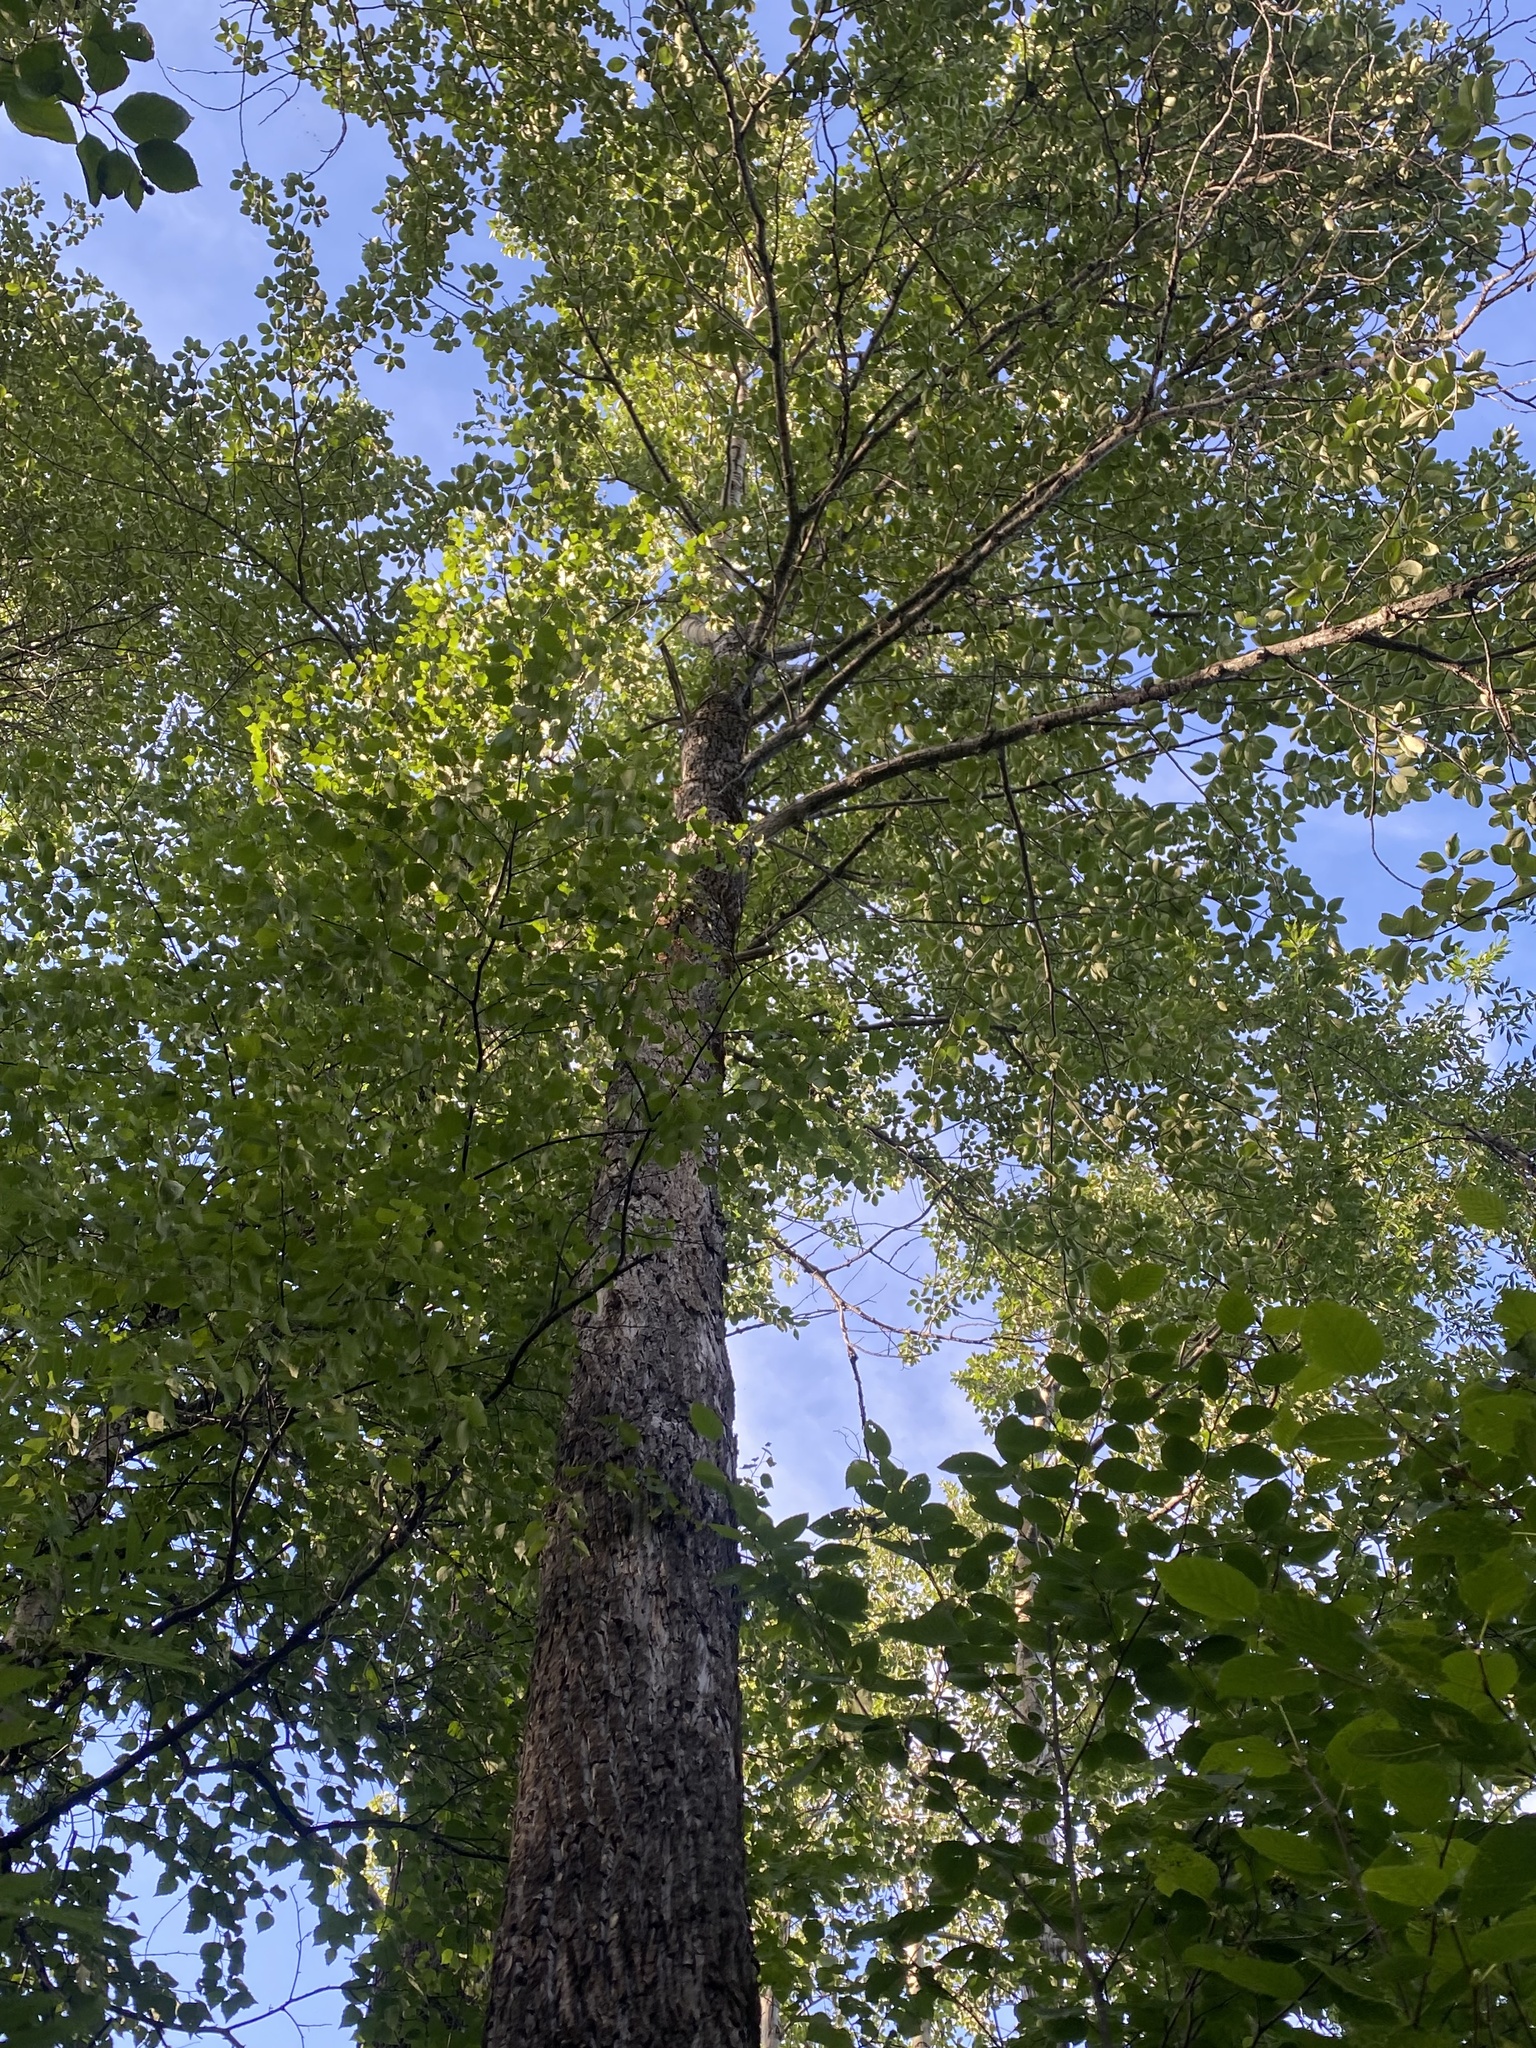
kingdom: Plantae
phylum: Tracheophyta
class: Magnoliopsida
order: Malpighiales
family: Salicaceae
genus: Populus
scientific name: Populus suaveolens
